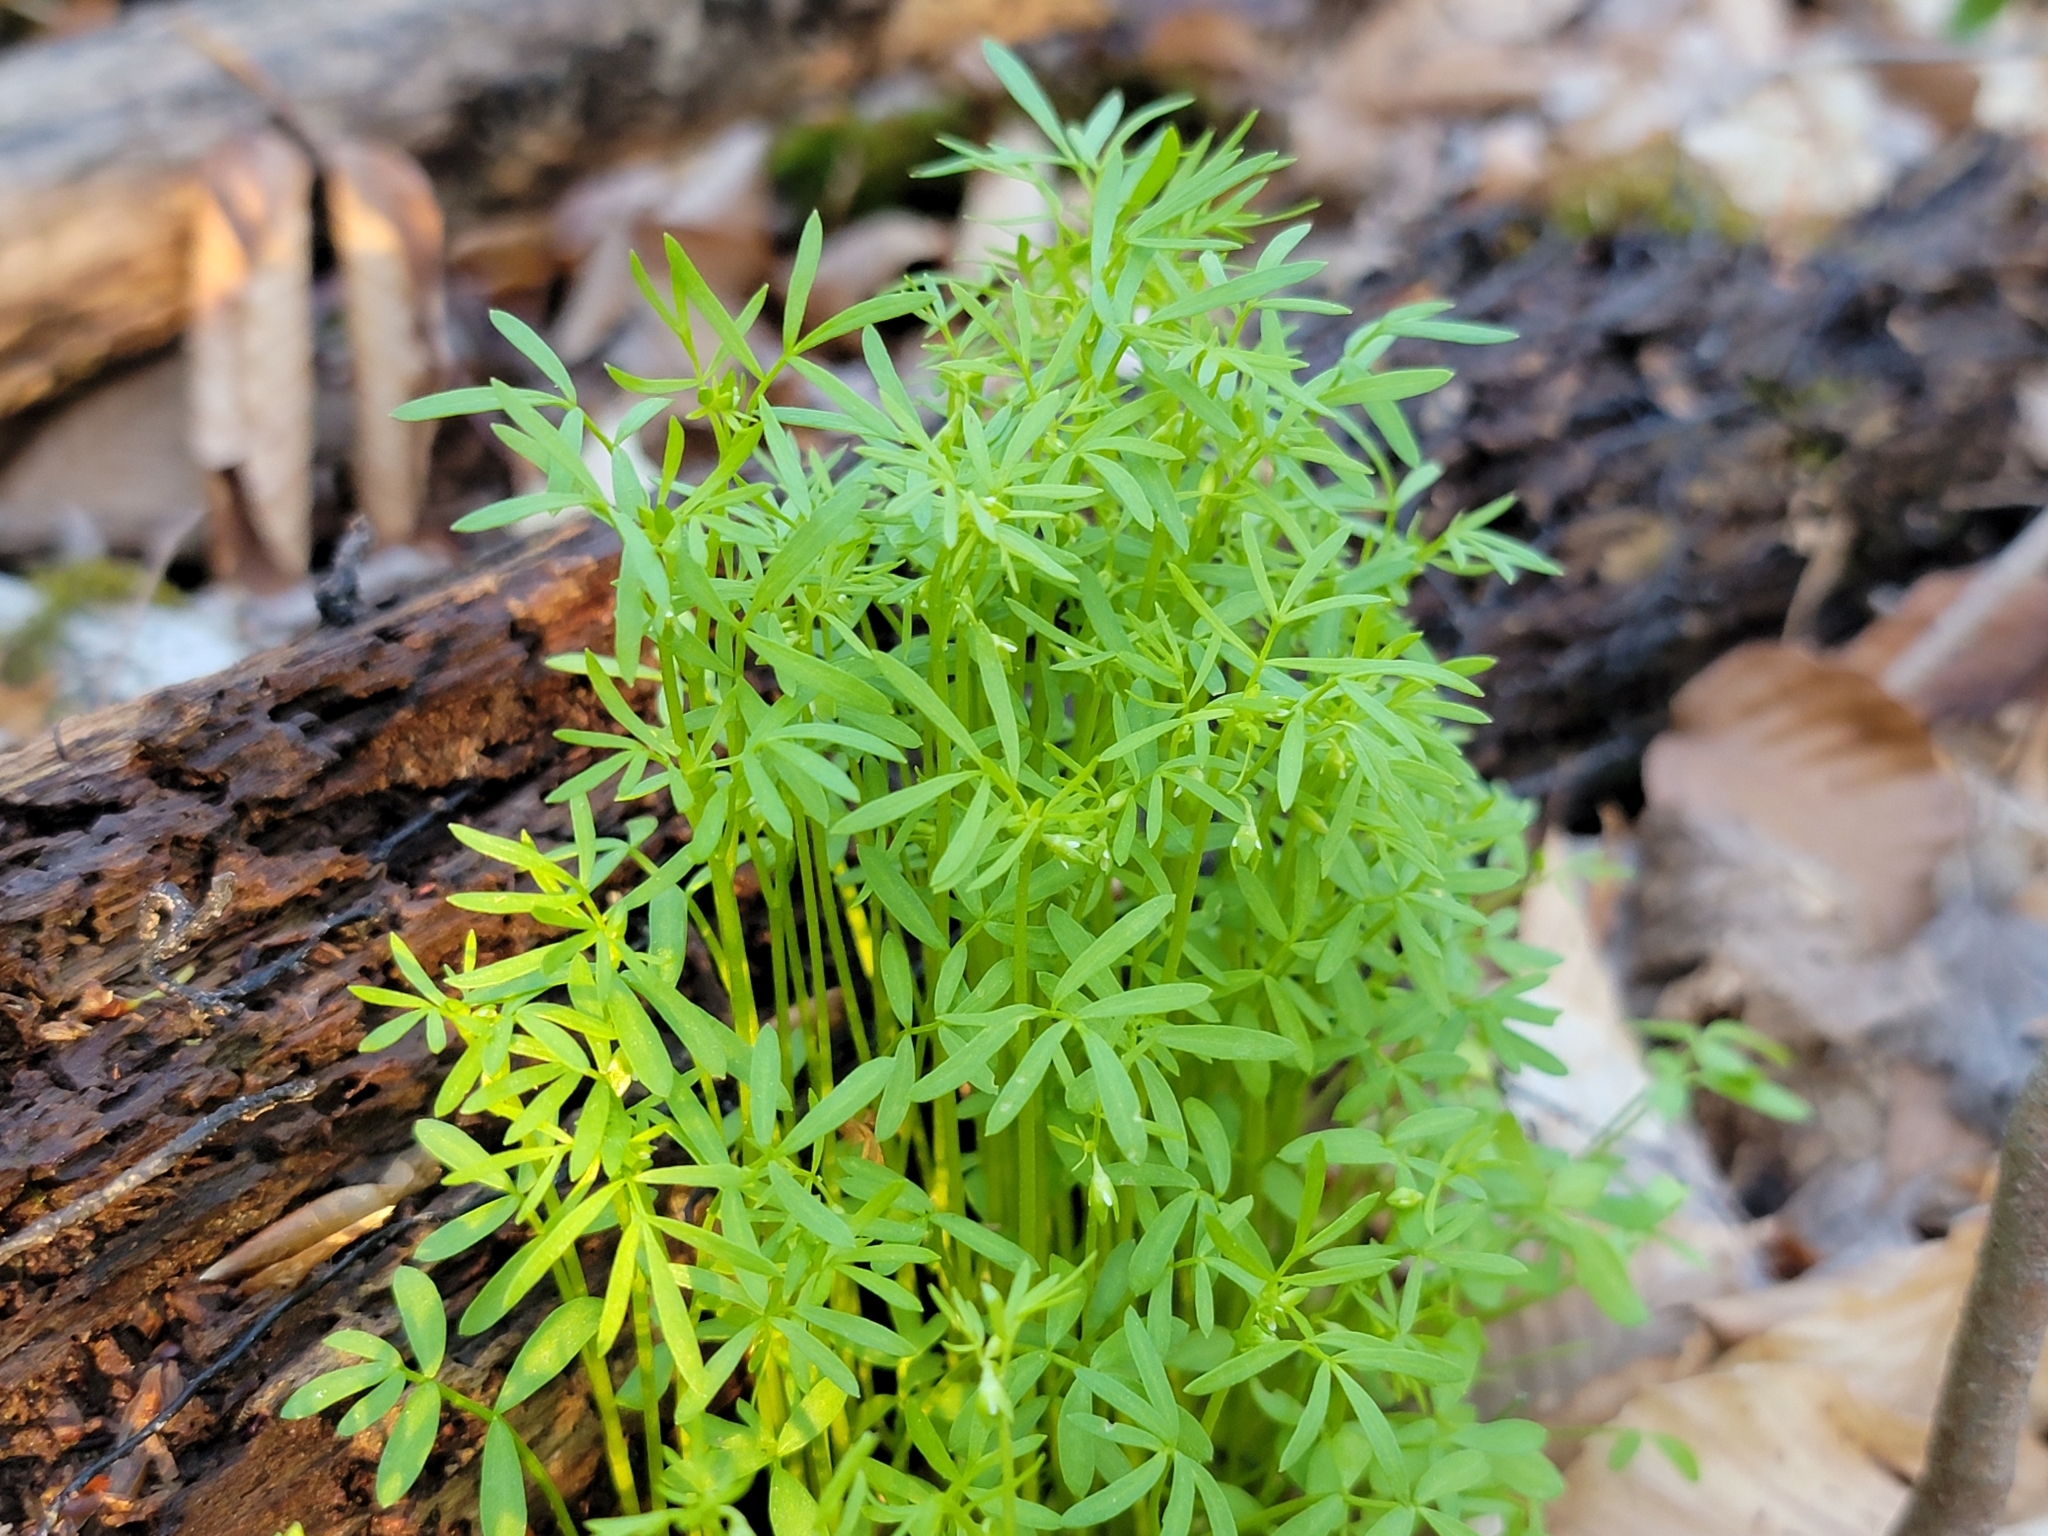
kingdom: Plantae
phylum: Tracheophyta
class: Magnoliopsida
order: Brassicales
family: Limnanthaceae
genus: Floerkea
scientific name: Floerkea proserpinacoides
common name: False mermaid
